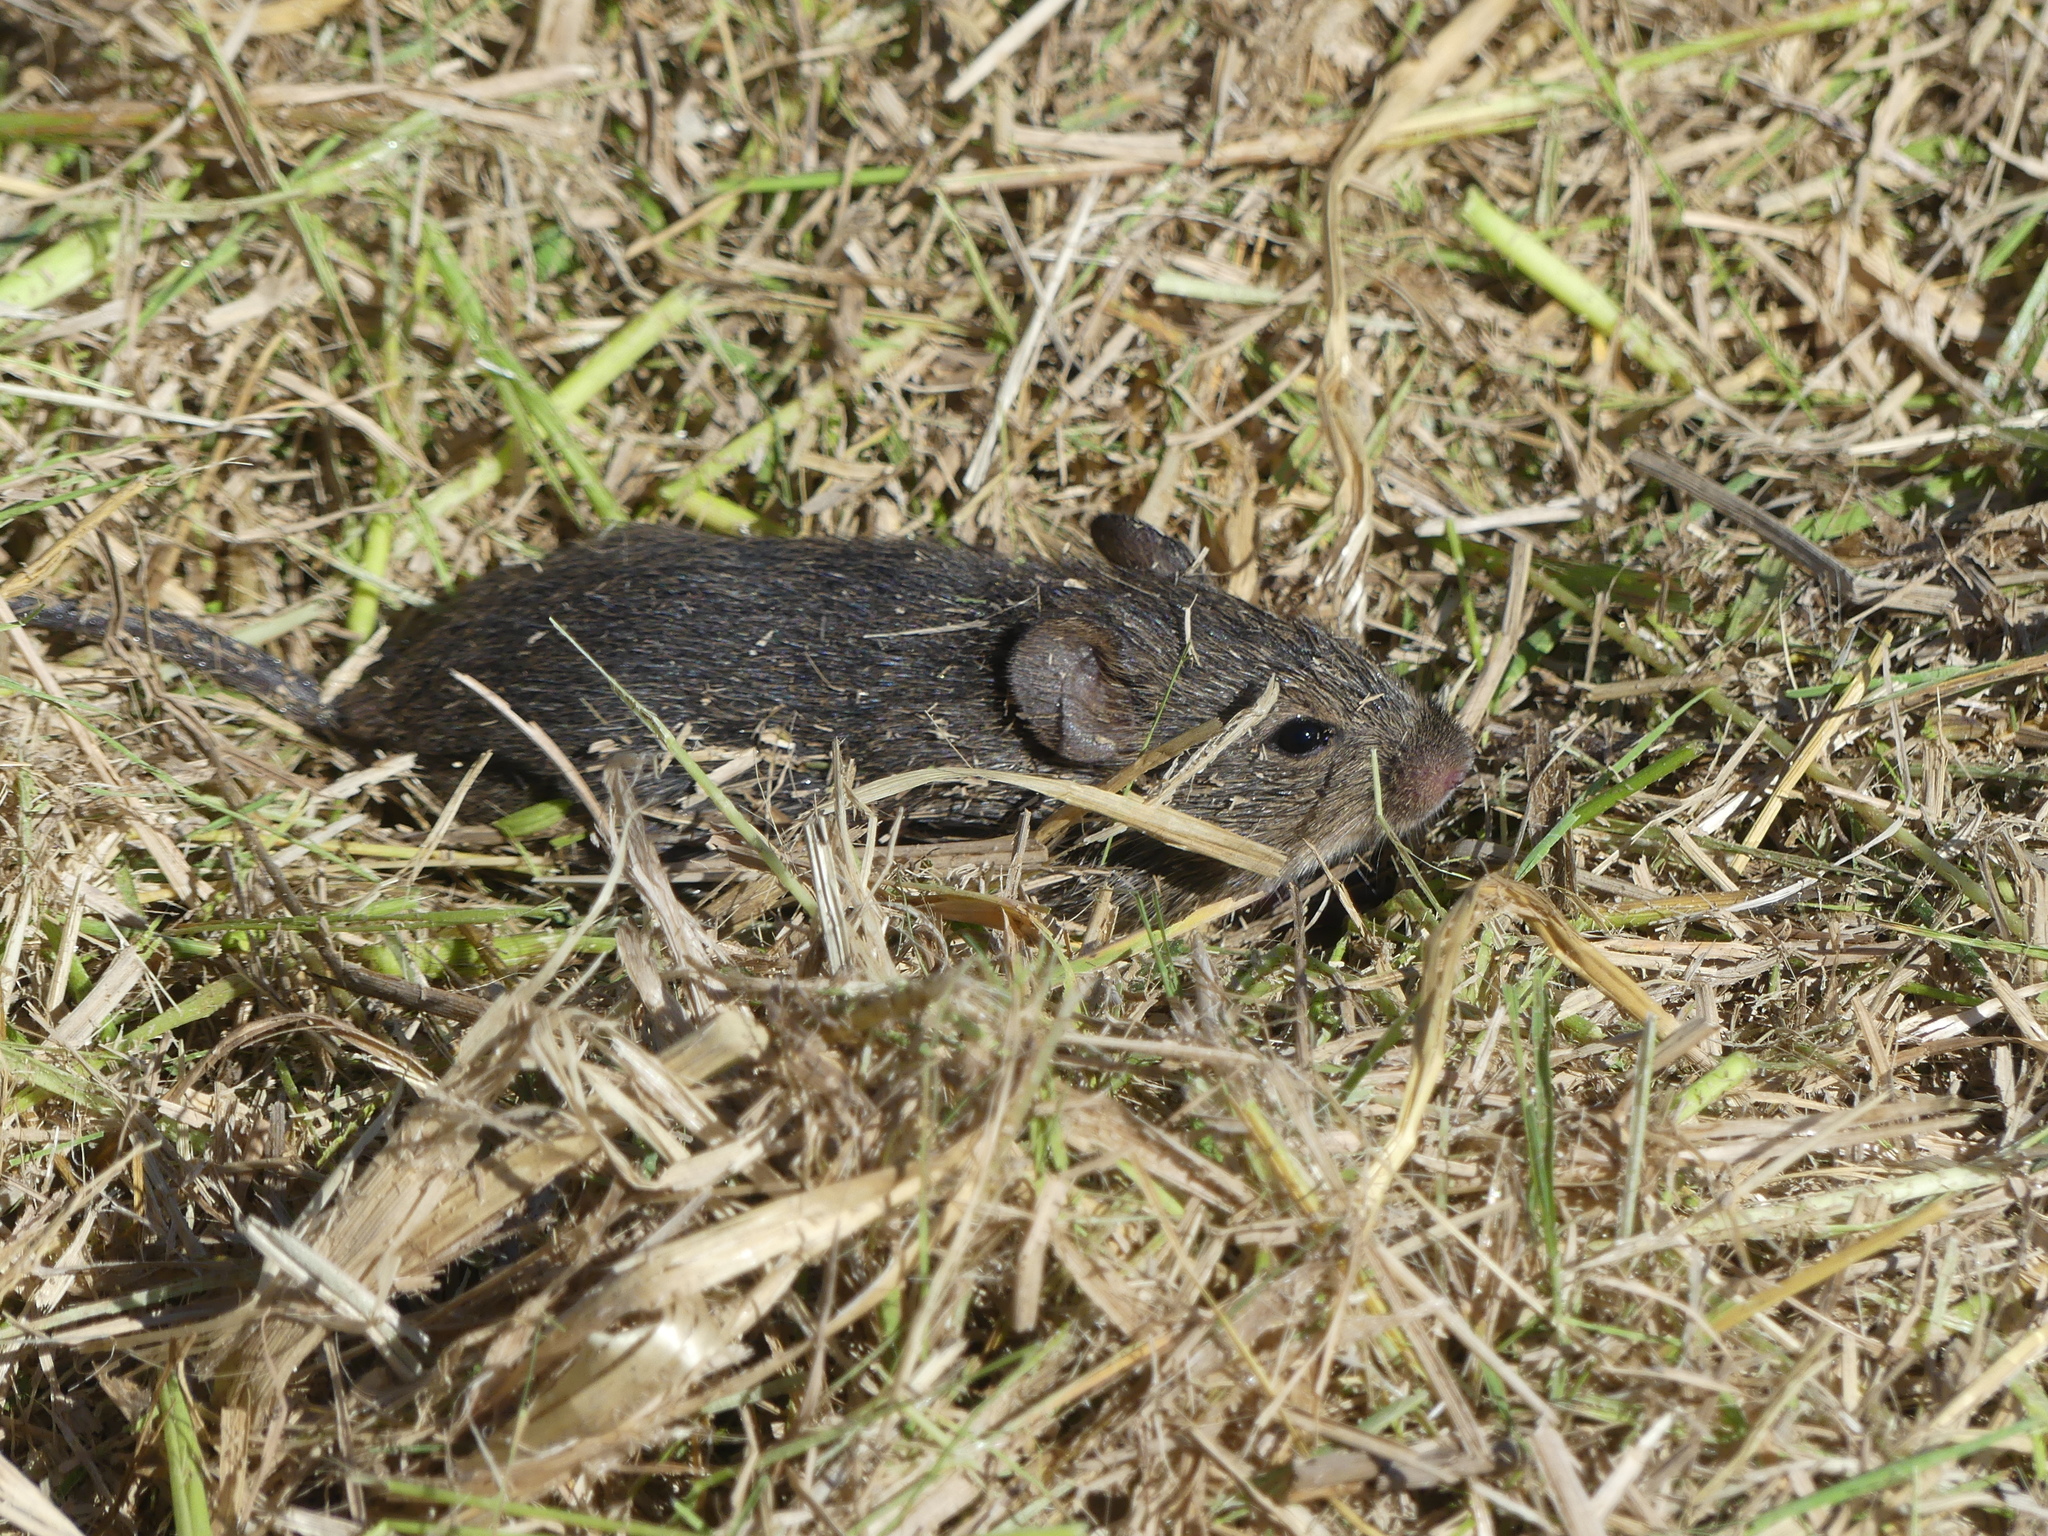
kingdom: Animalia
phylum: Chordata
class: Mammalia
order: Rodentia
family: Cricetidae
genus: Sigmodon
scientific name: Sigmodon hispidus
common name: Hispid cotton rat
